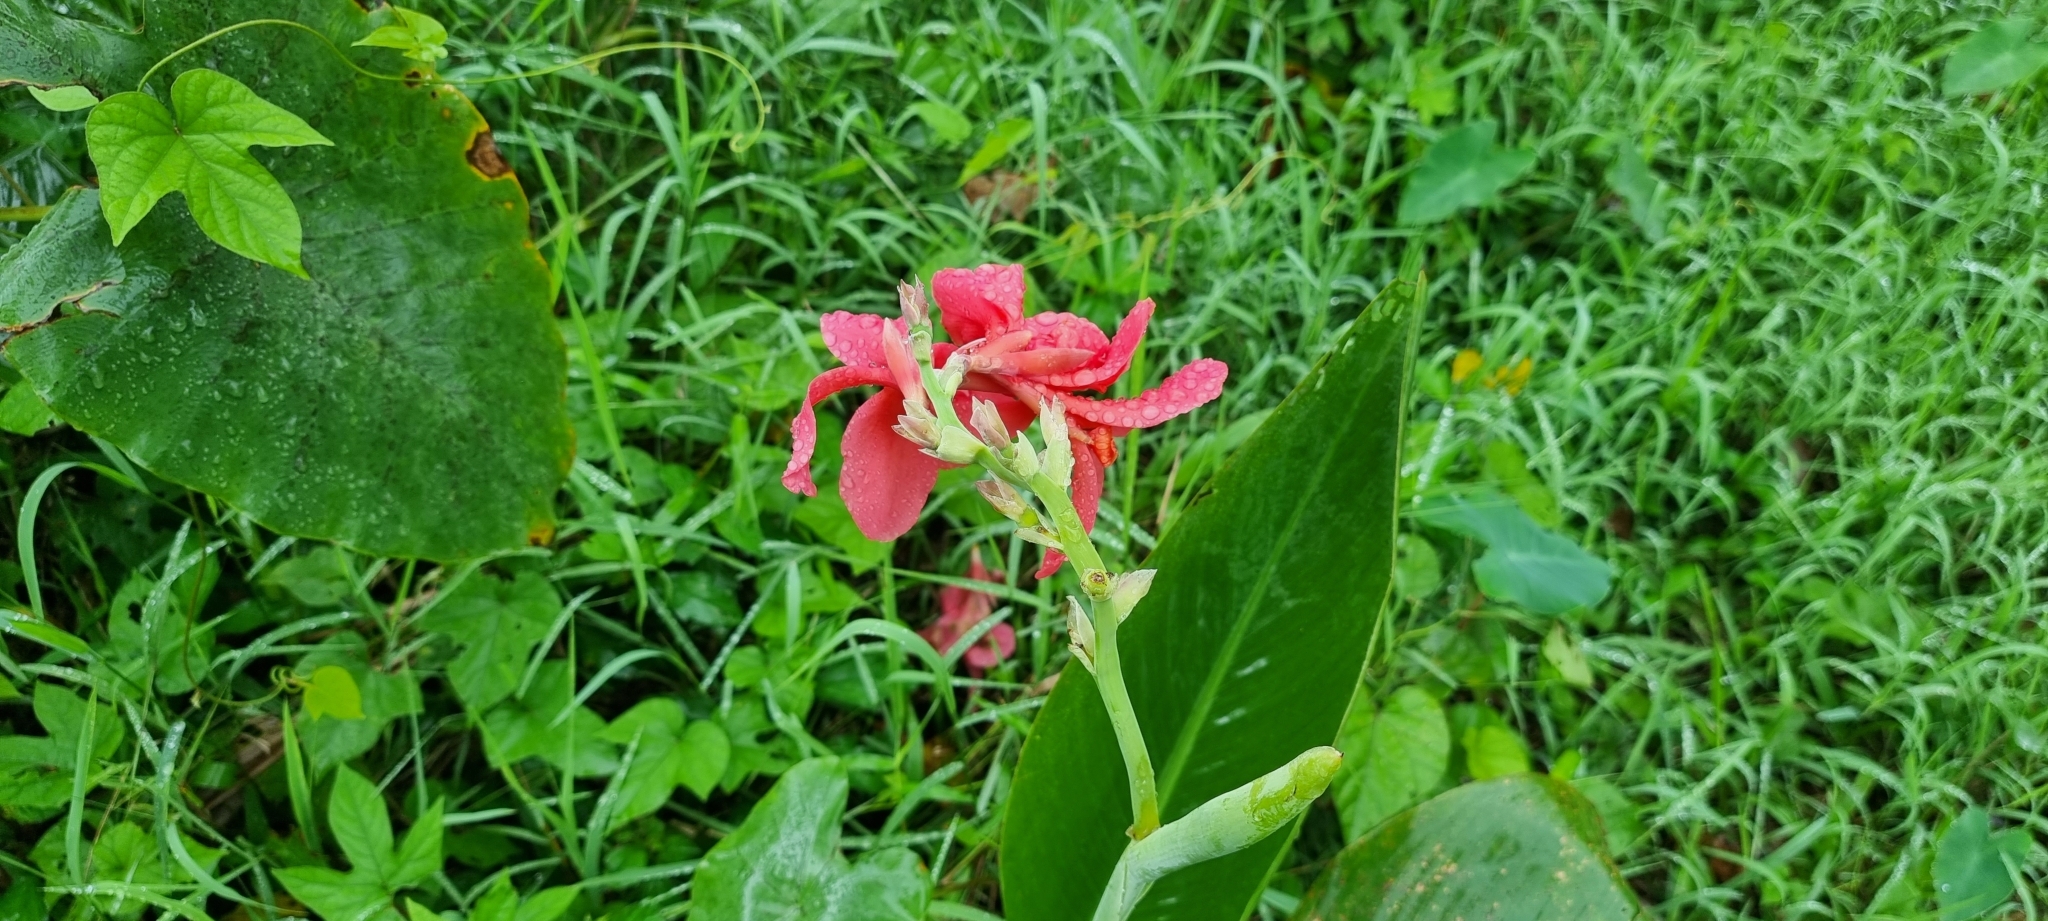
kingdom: Plantae
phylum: Tracheophyta
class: Liliopsida
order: Zingiberales
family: Cannaceae
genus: Canna
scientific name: Canna hybrida
